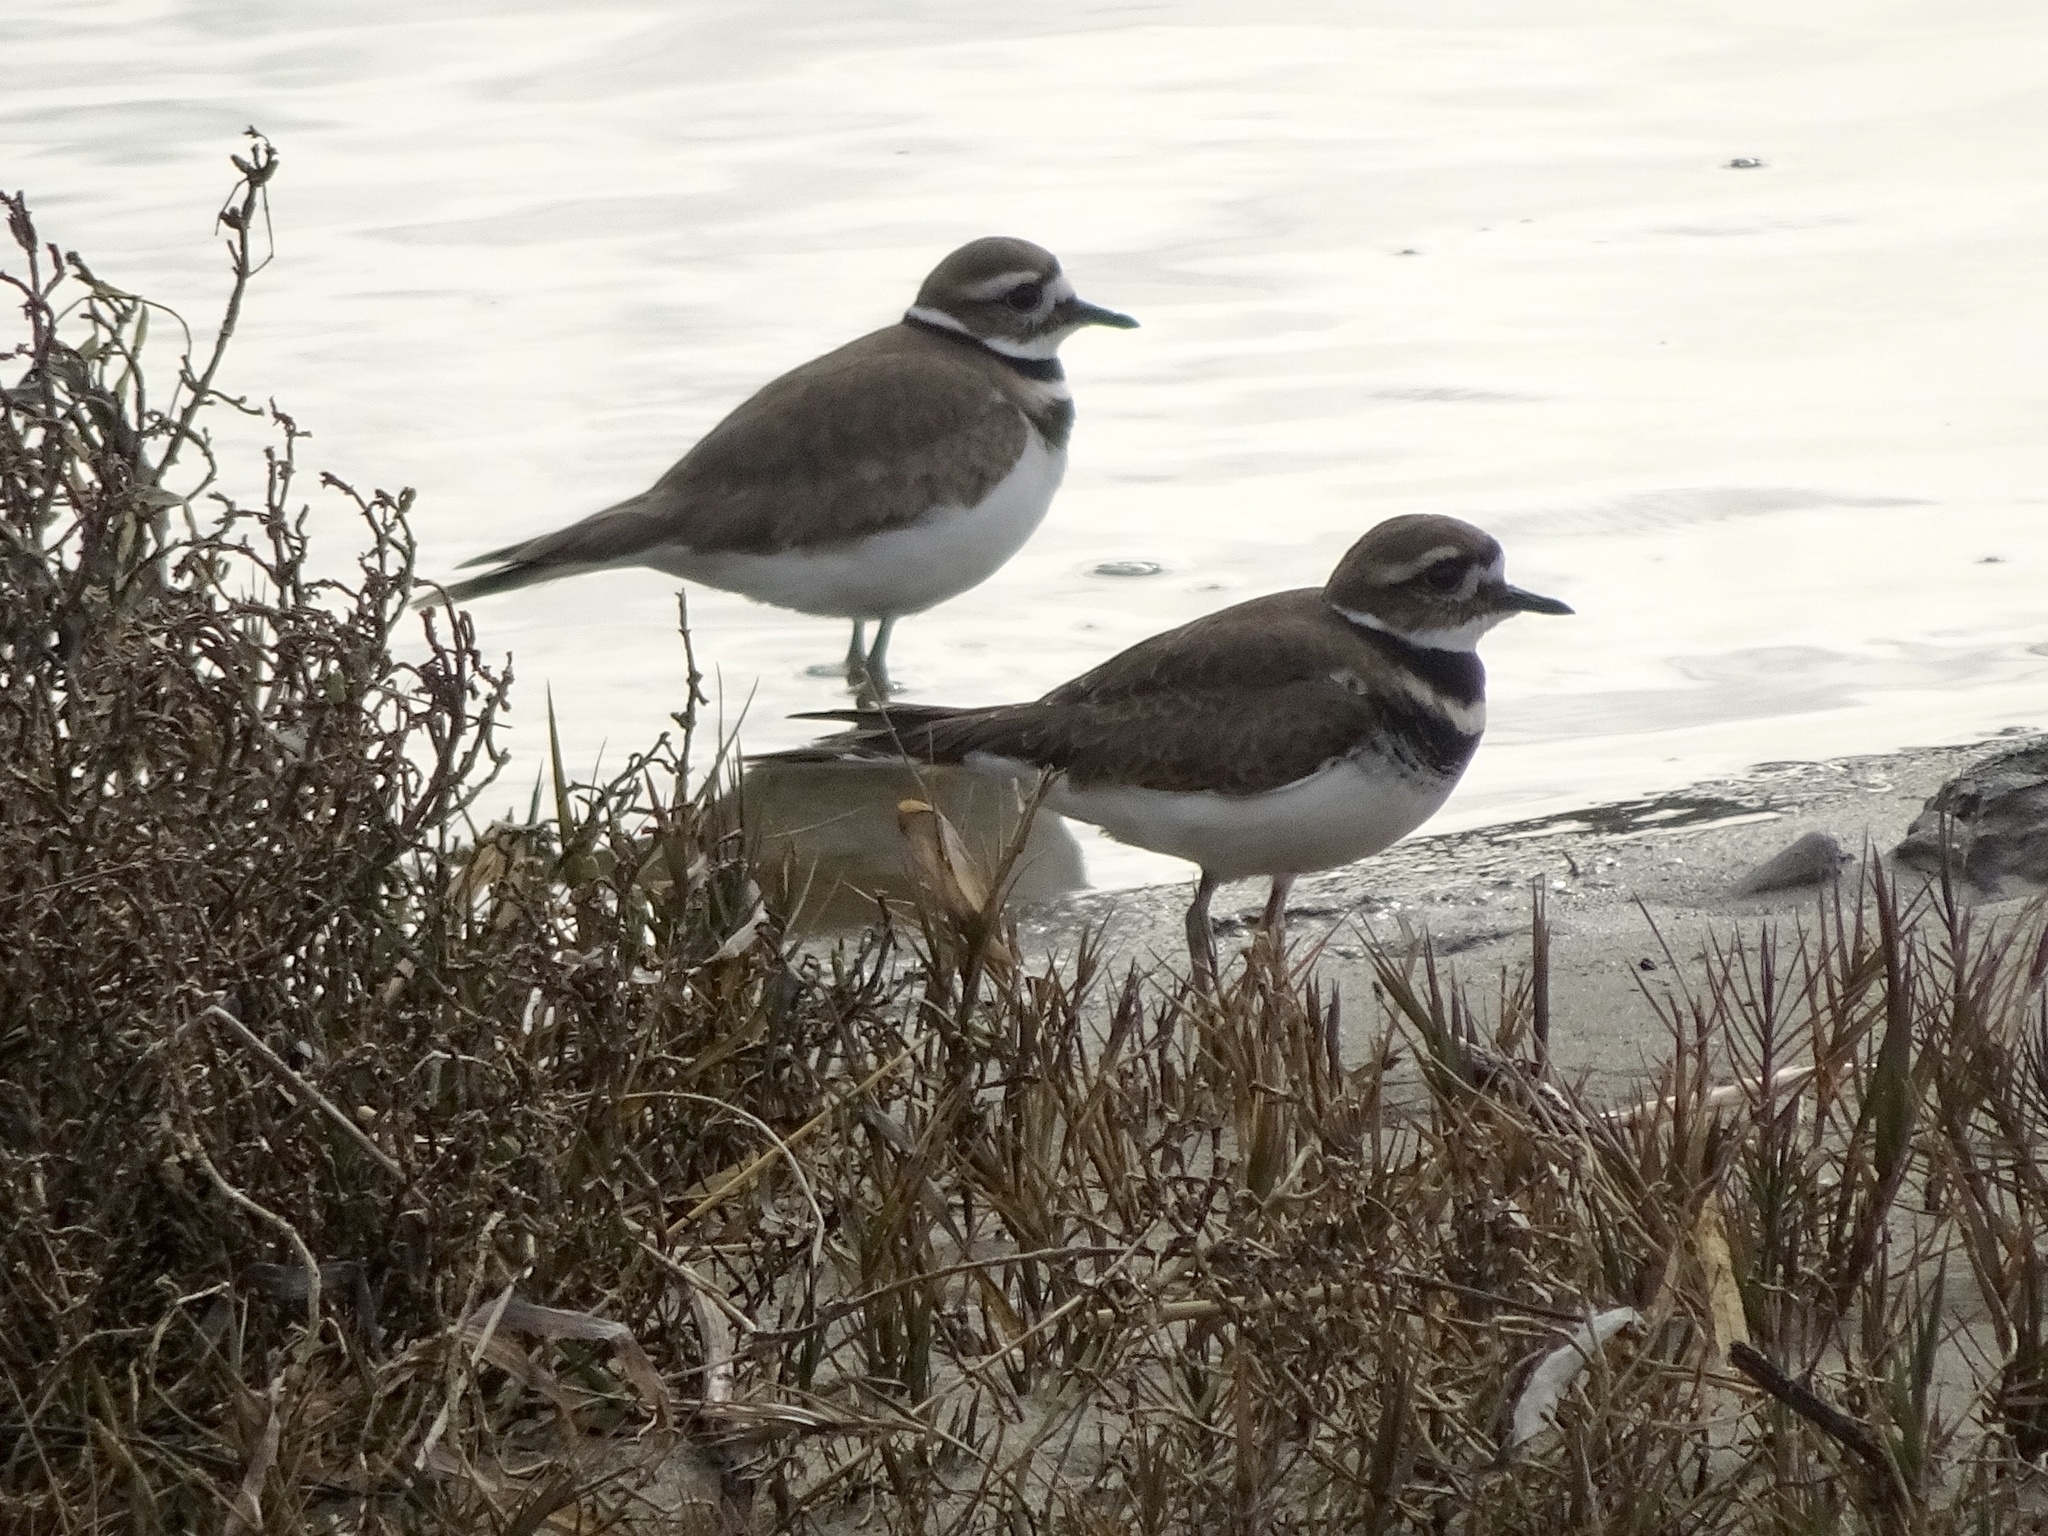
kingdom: Animalia
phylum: Chordata
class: Aves
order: Charadriiformes
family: Charadriidae
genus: Charadrius
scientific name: Charadrius vociferus
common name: Killdeer
